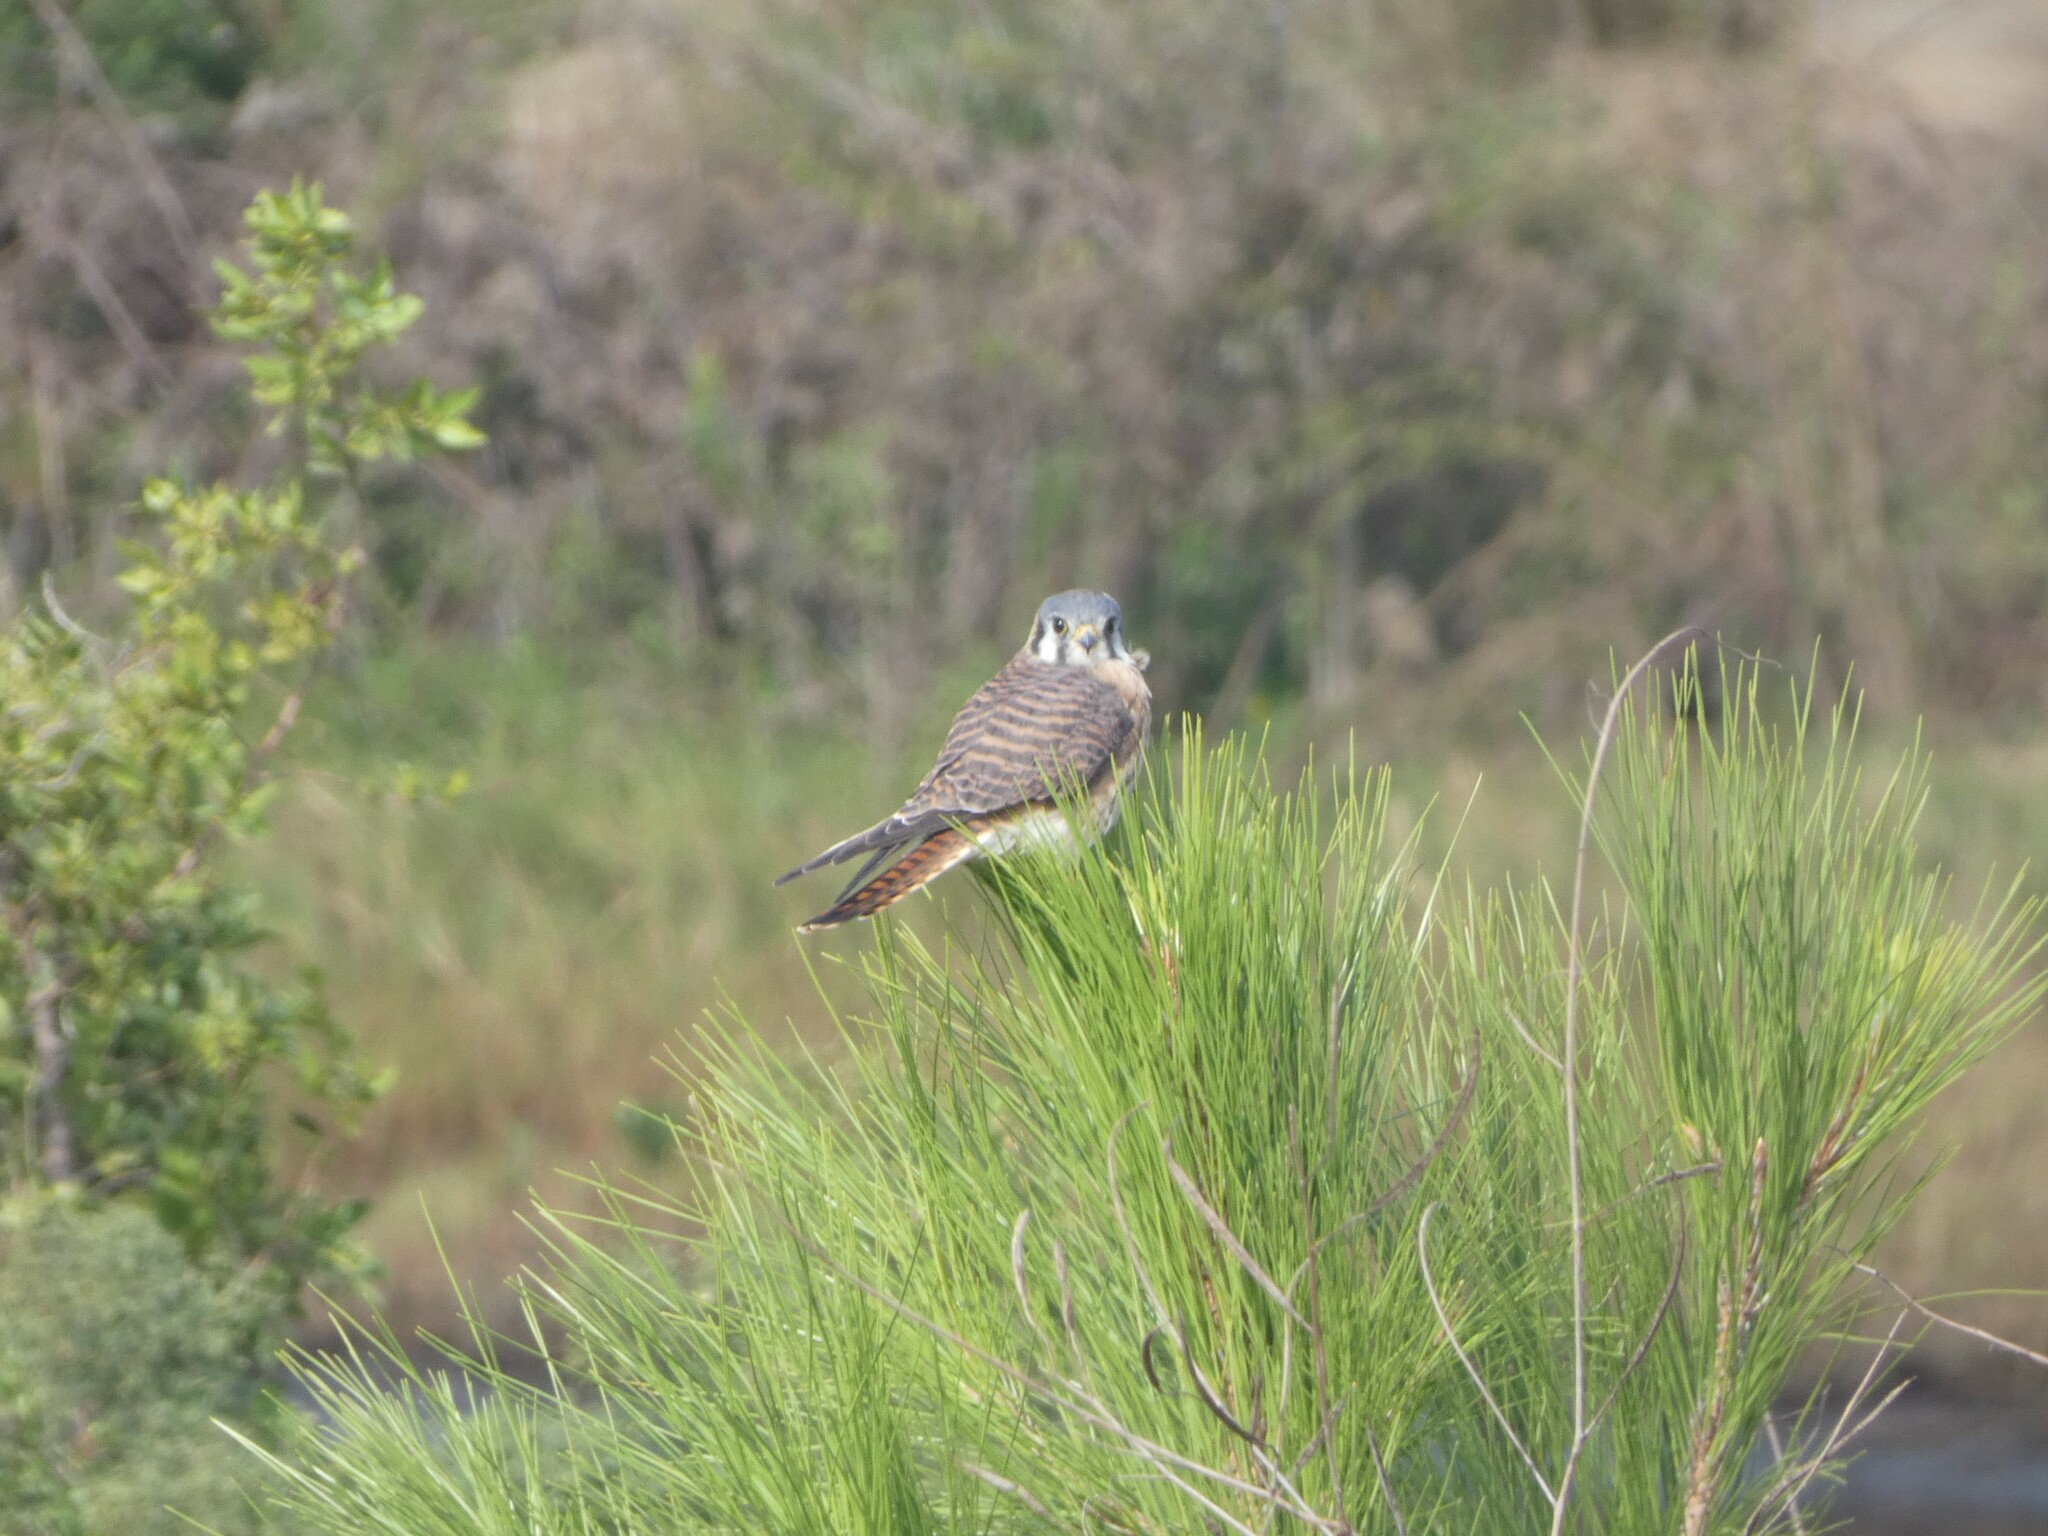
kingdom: Animalia
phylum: Chordata
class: Aves
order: Falconiformes
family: Falconidae
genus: Falco
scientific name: Falco sparverius
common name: American kestrel
